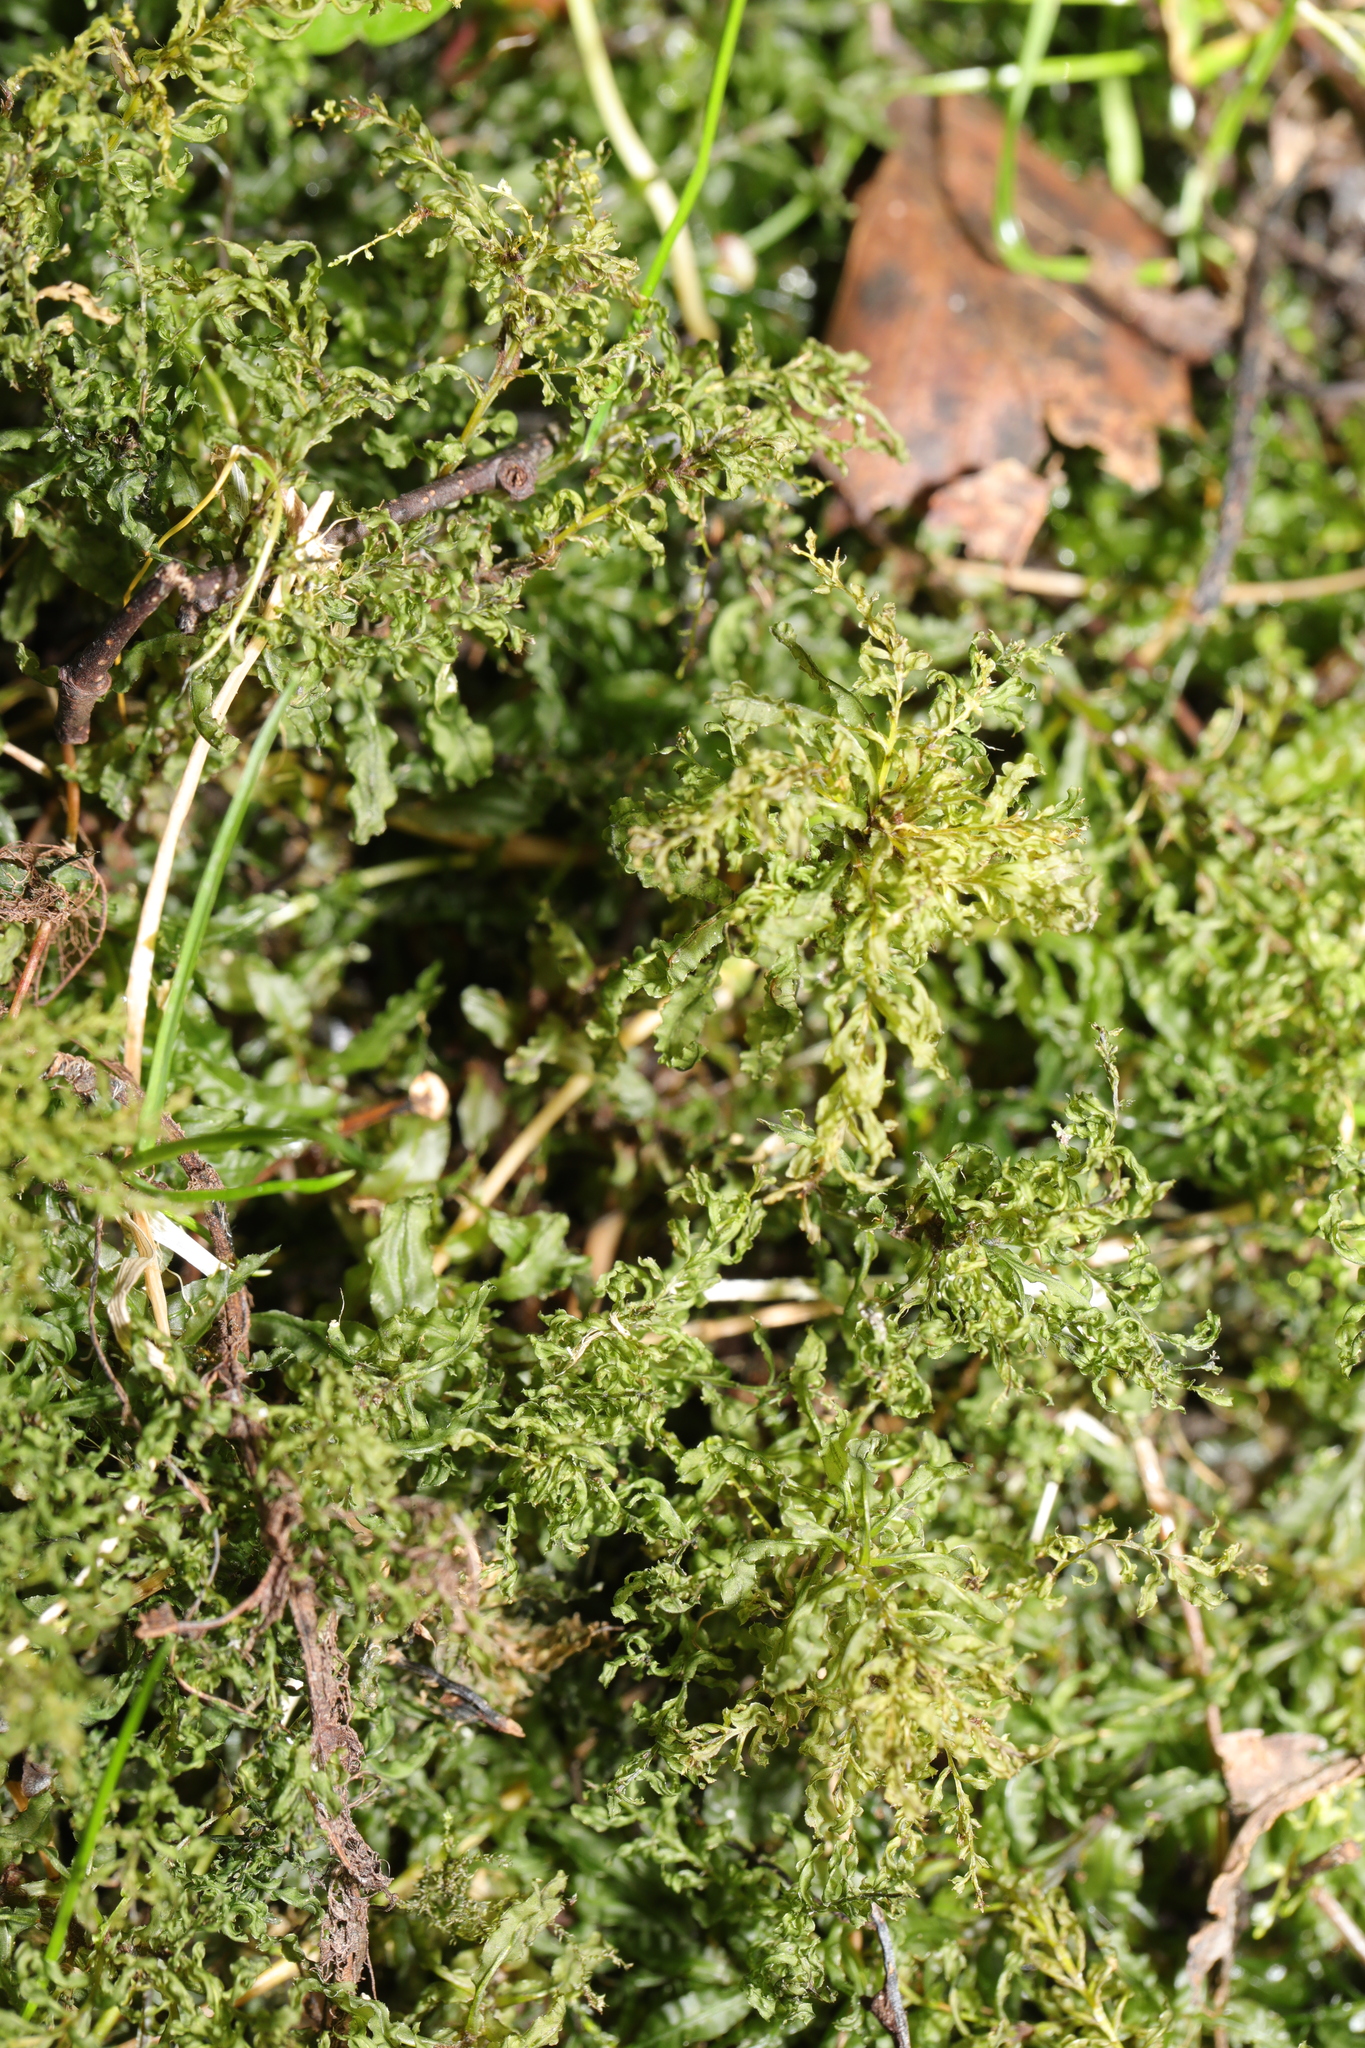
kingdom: Plantae
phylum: Bryophyta
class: Bryopsida
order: Bryales
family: Mniaceae
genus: Plagiomnium
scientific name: Plagiomnium undulatum
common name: Hart's-tongue thyme-moss
